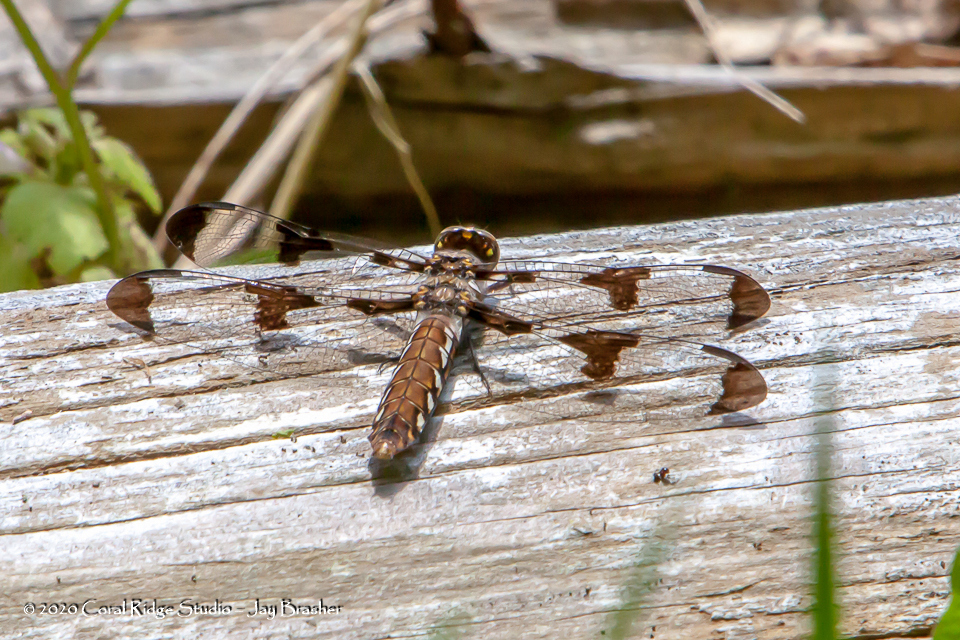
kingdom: Animalia
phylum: Arthropoda
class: Insecta
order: Odonata
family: Libellulidae
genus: Plathemis
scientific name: Plathemis lydia
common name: Common whitetail
